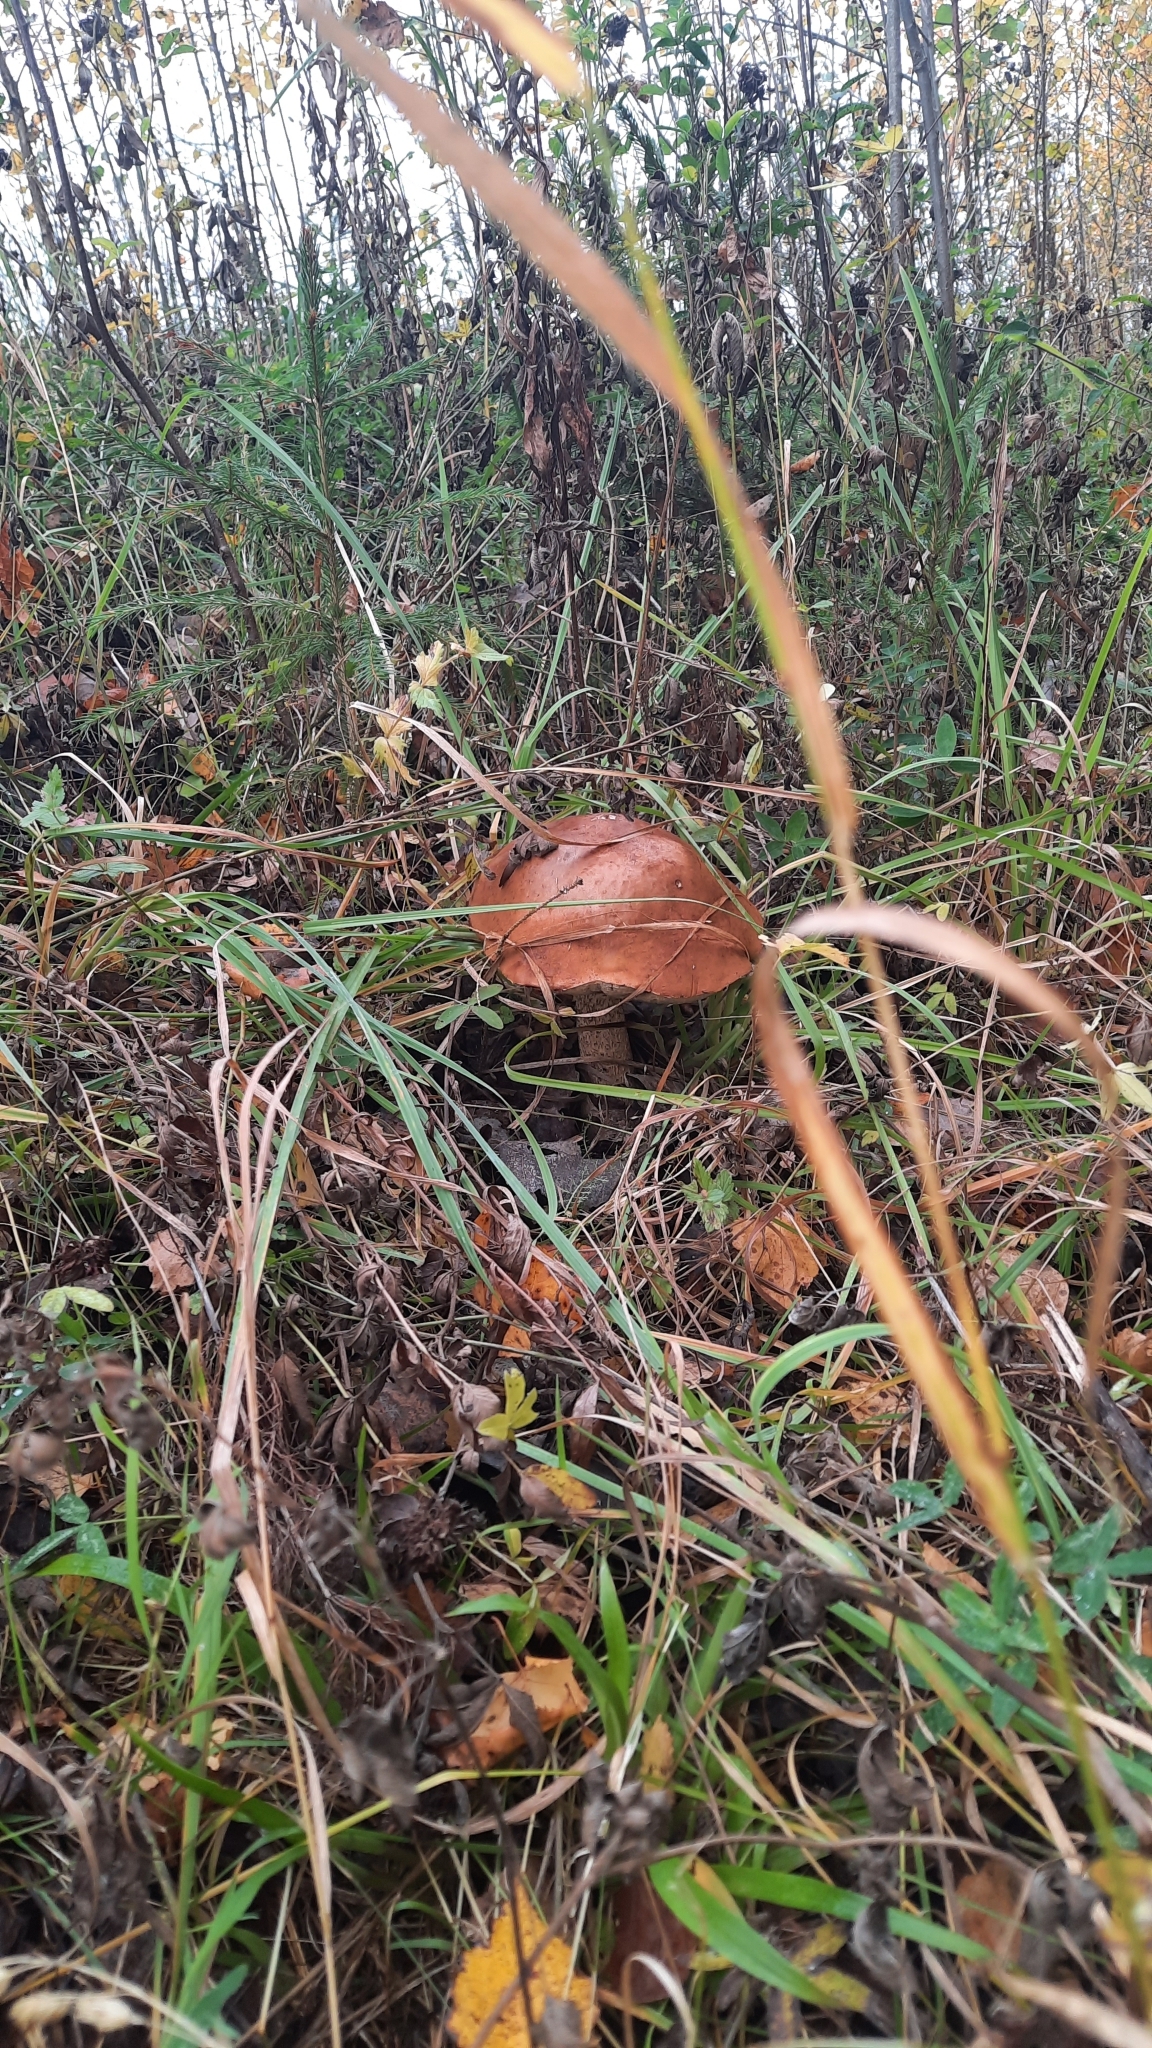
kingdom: Fungi
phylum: Basidiomycota
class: Agaricomycetes
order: Boletales
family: Boletaceae
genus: Leccinum
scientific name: Leccinum aurantiacum
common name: Orange bolete
